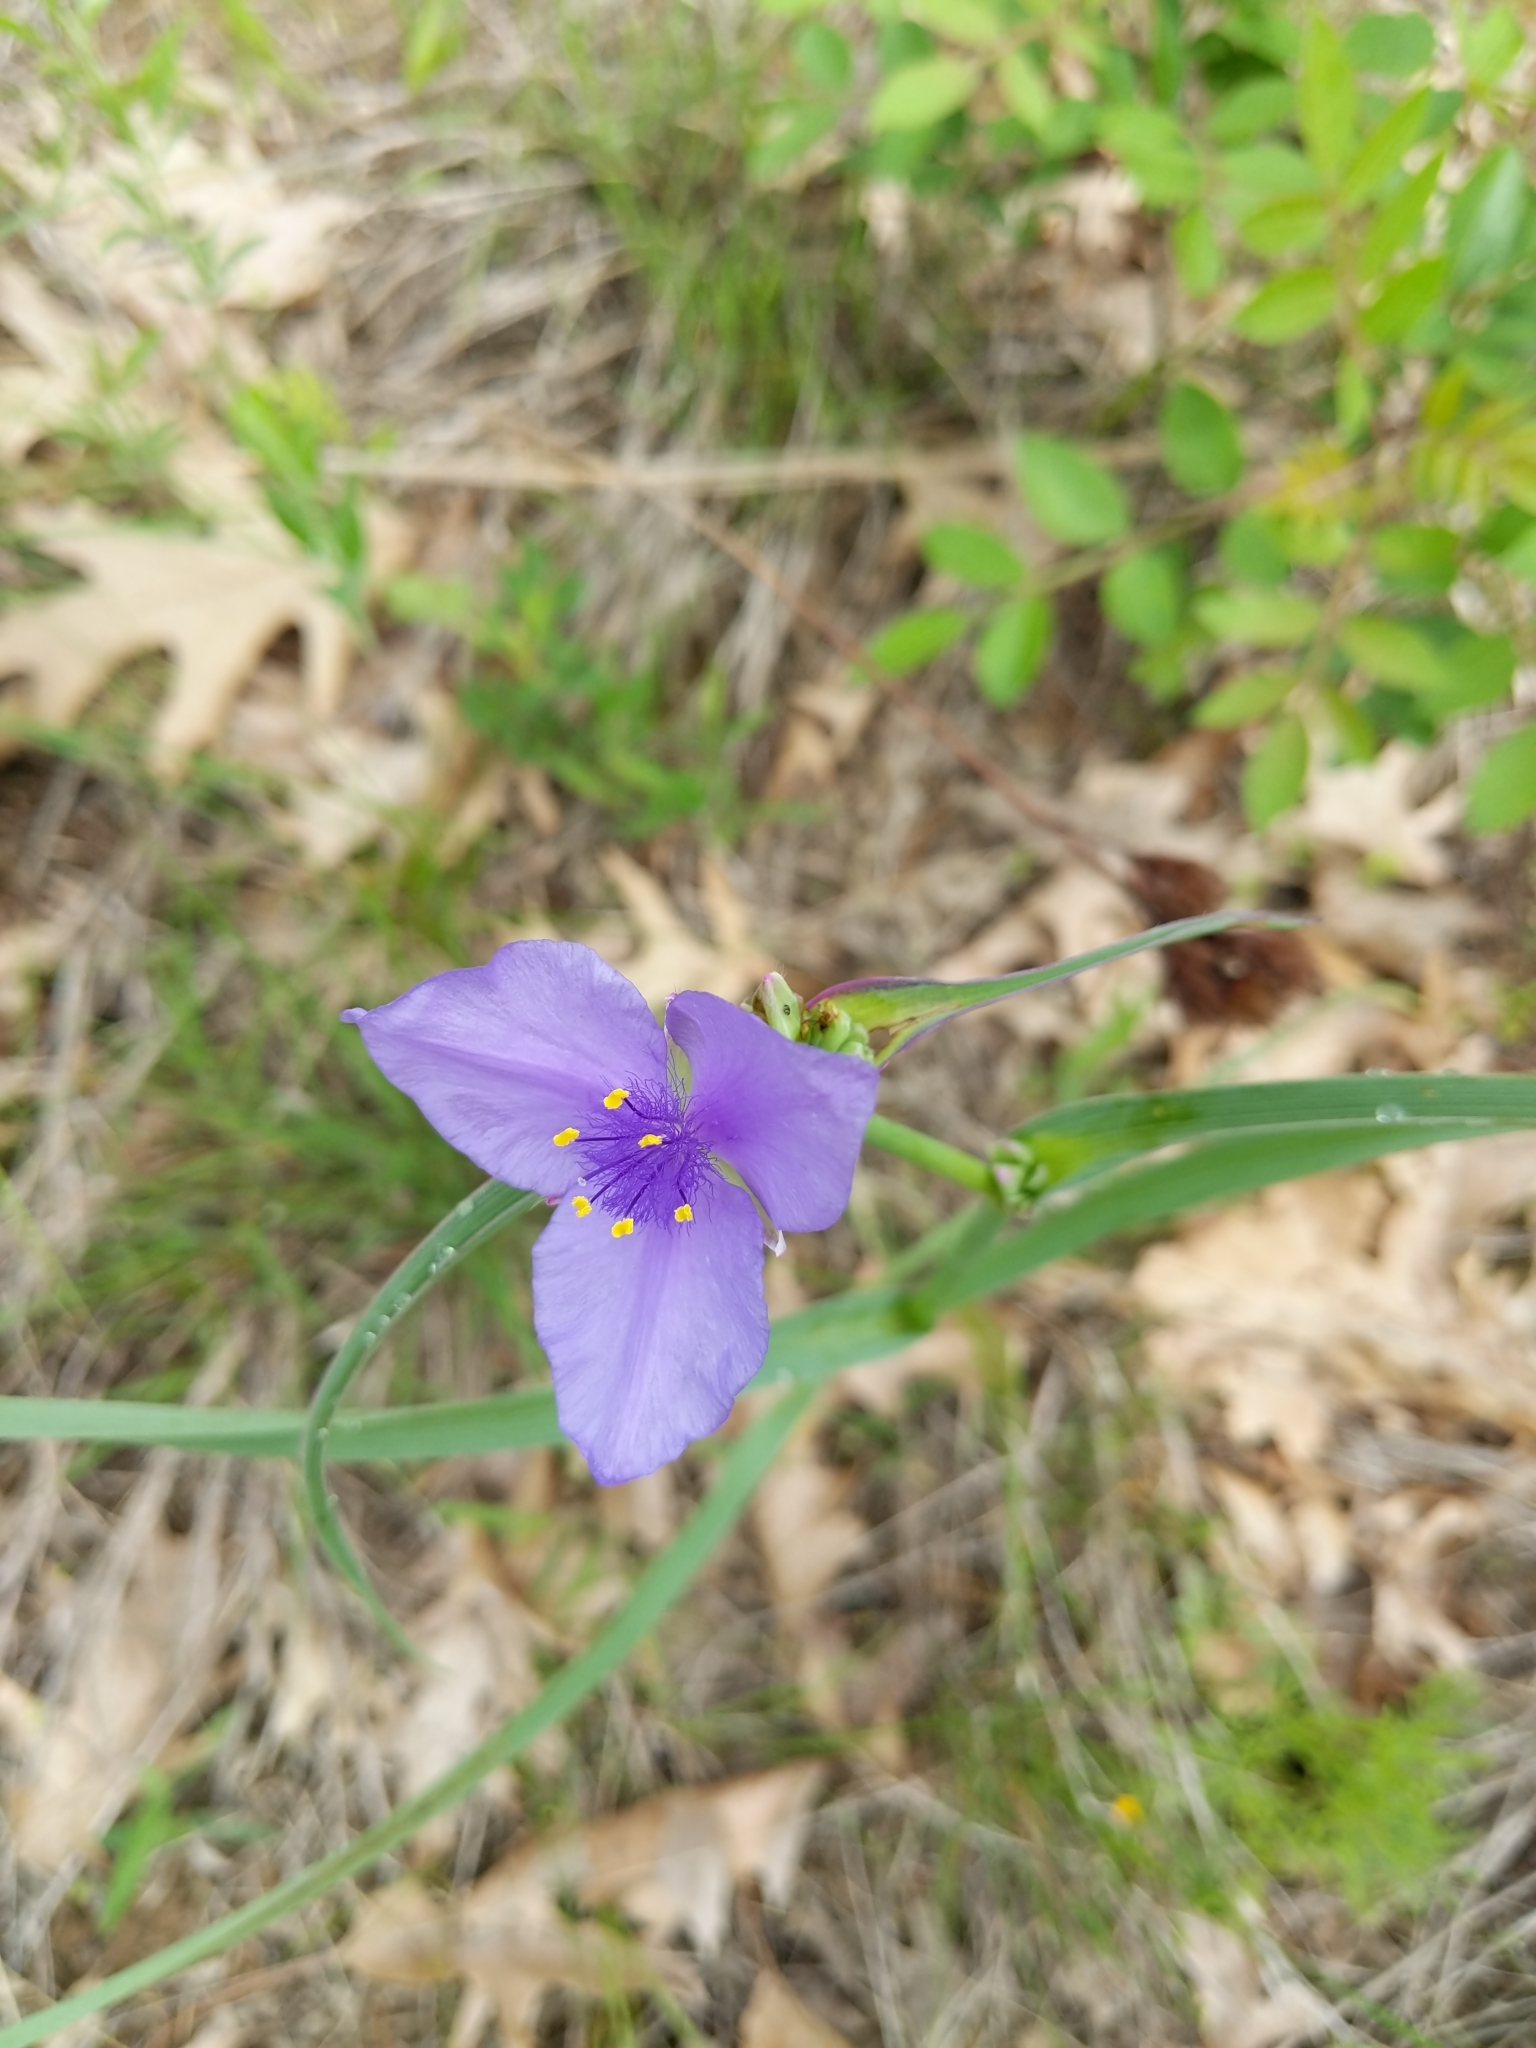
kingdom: Plantae
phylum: Tracheophyta
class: Liliopsida
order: Commelinales
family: Commelinaceae
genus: Tradescantia
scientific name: Tradescantia ohiensis
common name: Ohio spiderwort
